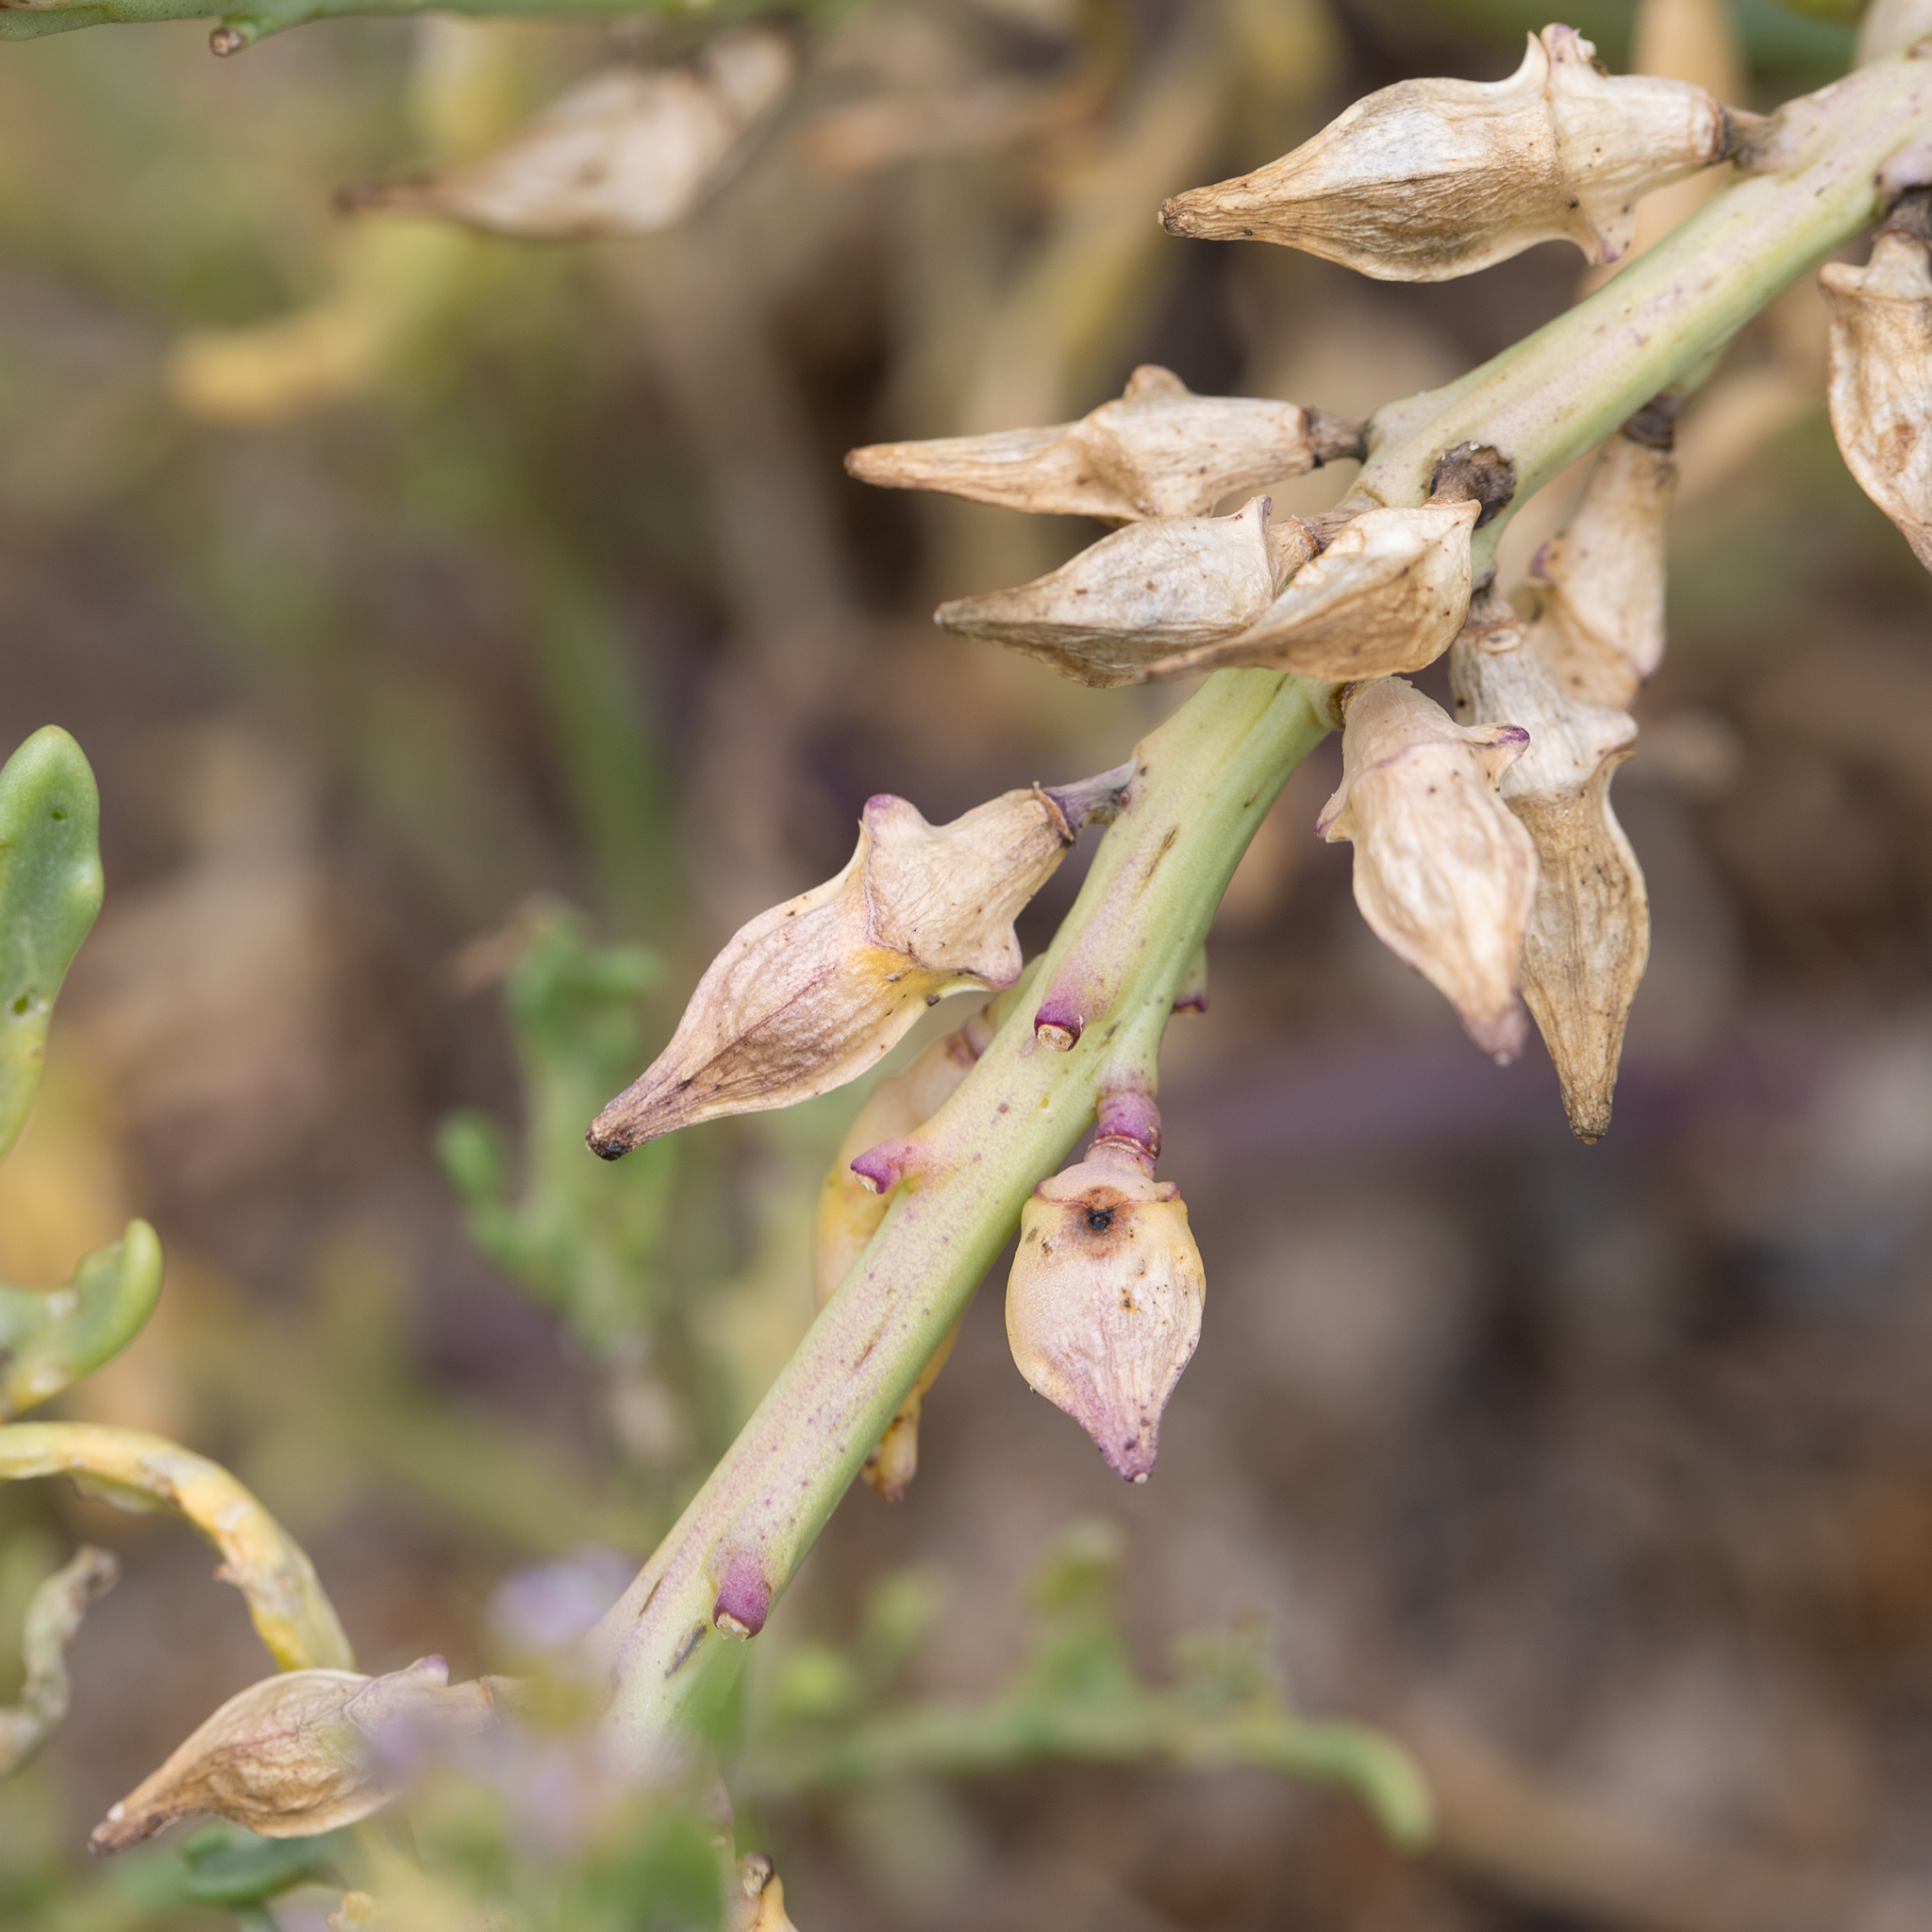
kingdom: Plantae
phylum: Tracheophyta
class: Magnoliopsida
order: Brassicales
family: Brassicaceae
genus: Cakile
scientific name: Cakile maritima
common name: Sea rocket
